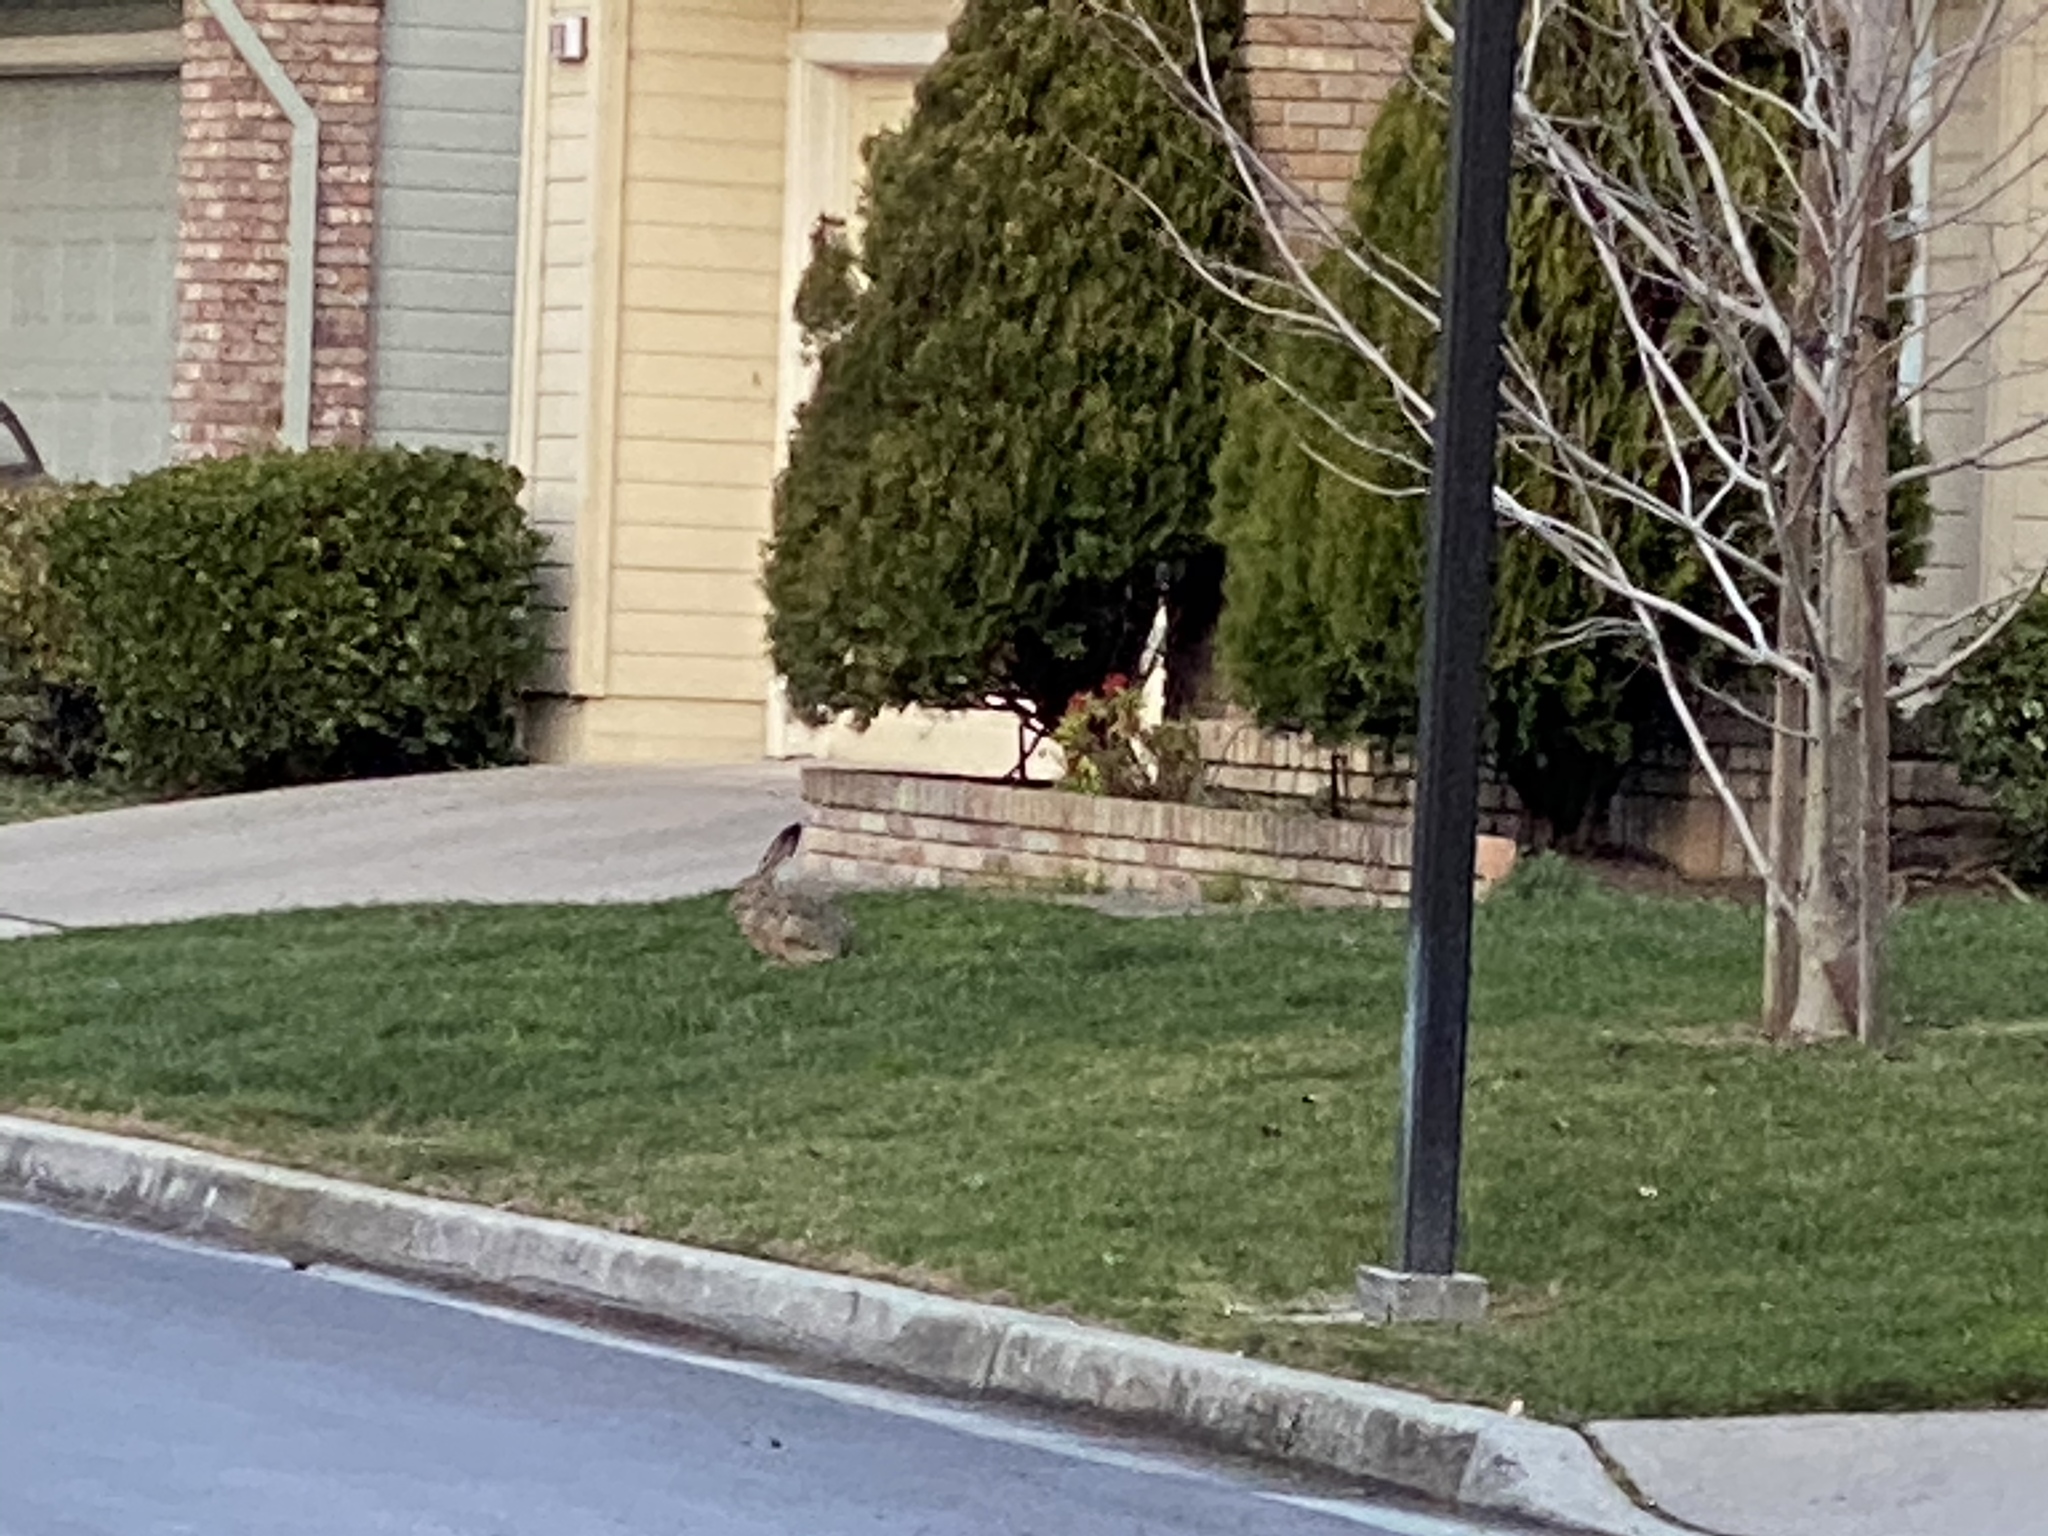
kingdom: Animalia
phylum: Chordata
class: Mammalia
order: Lagomorpha
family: Leporidae
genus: Lepus
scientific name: Lepus californicus
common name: Black-tailed jackrabbit
